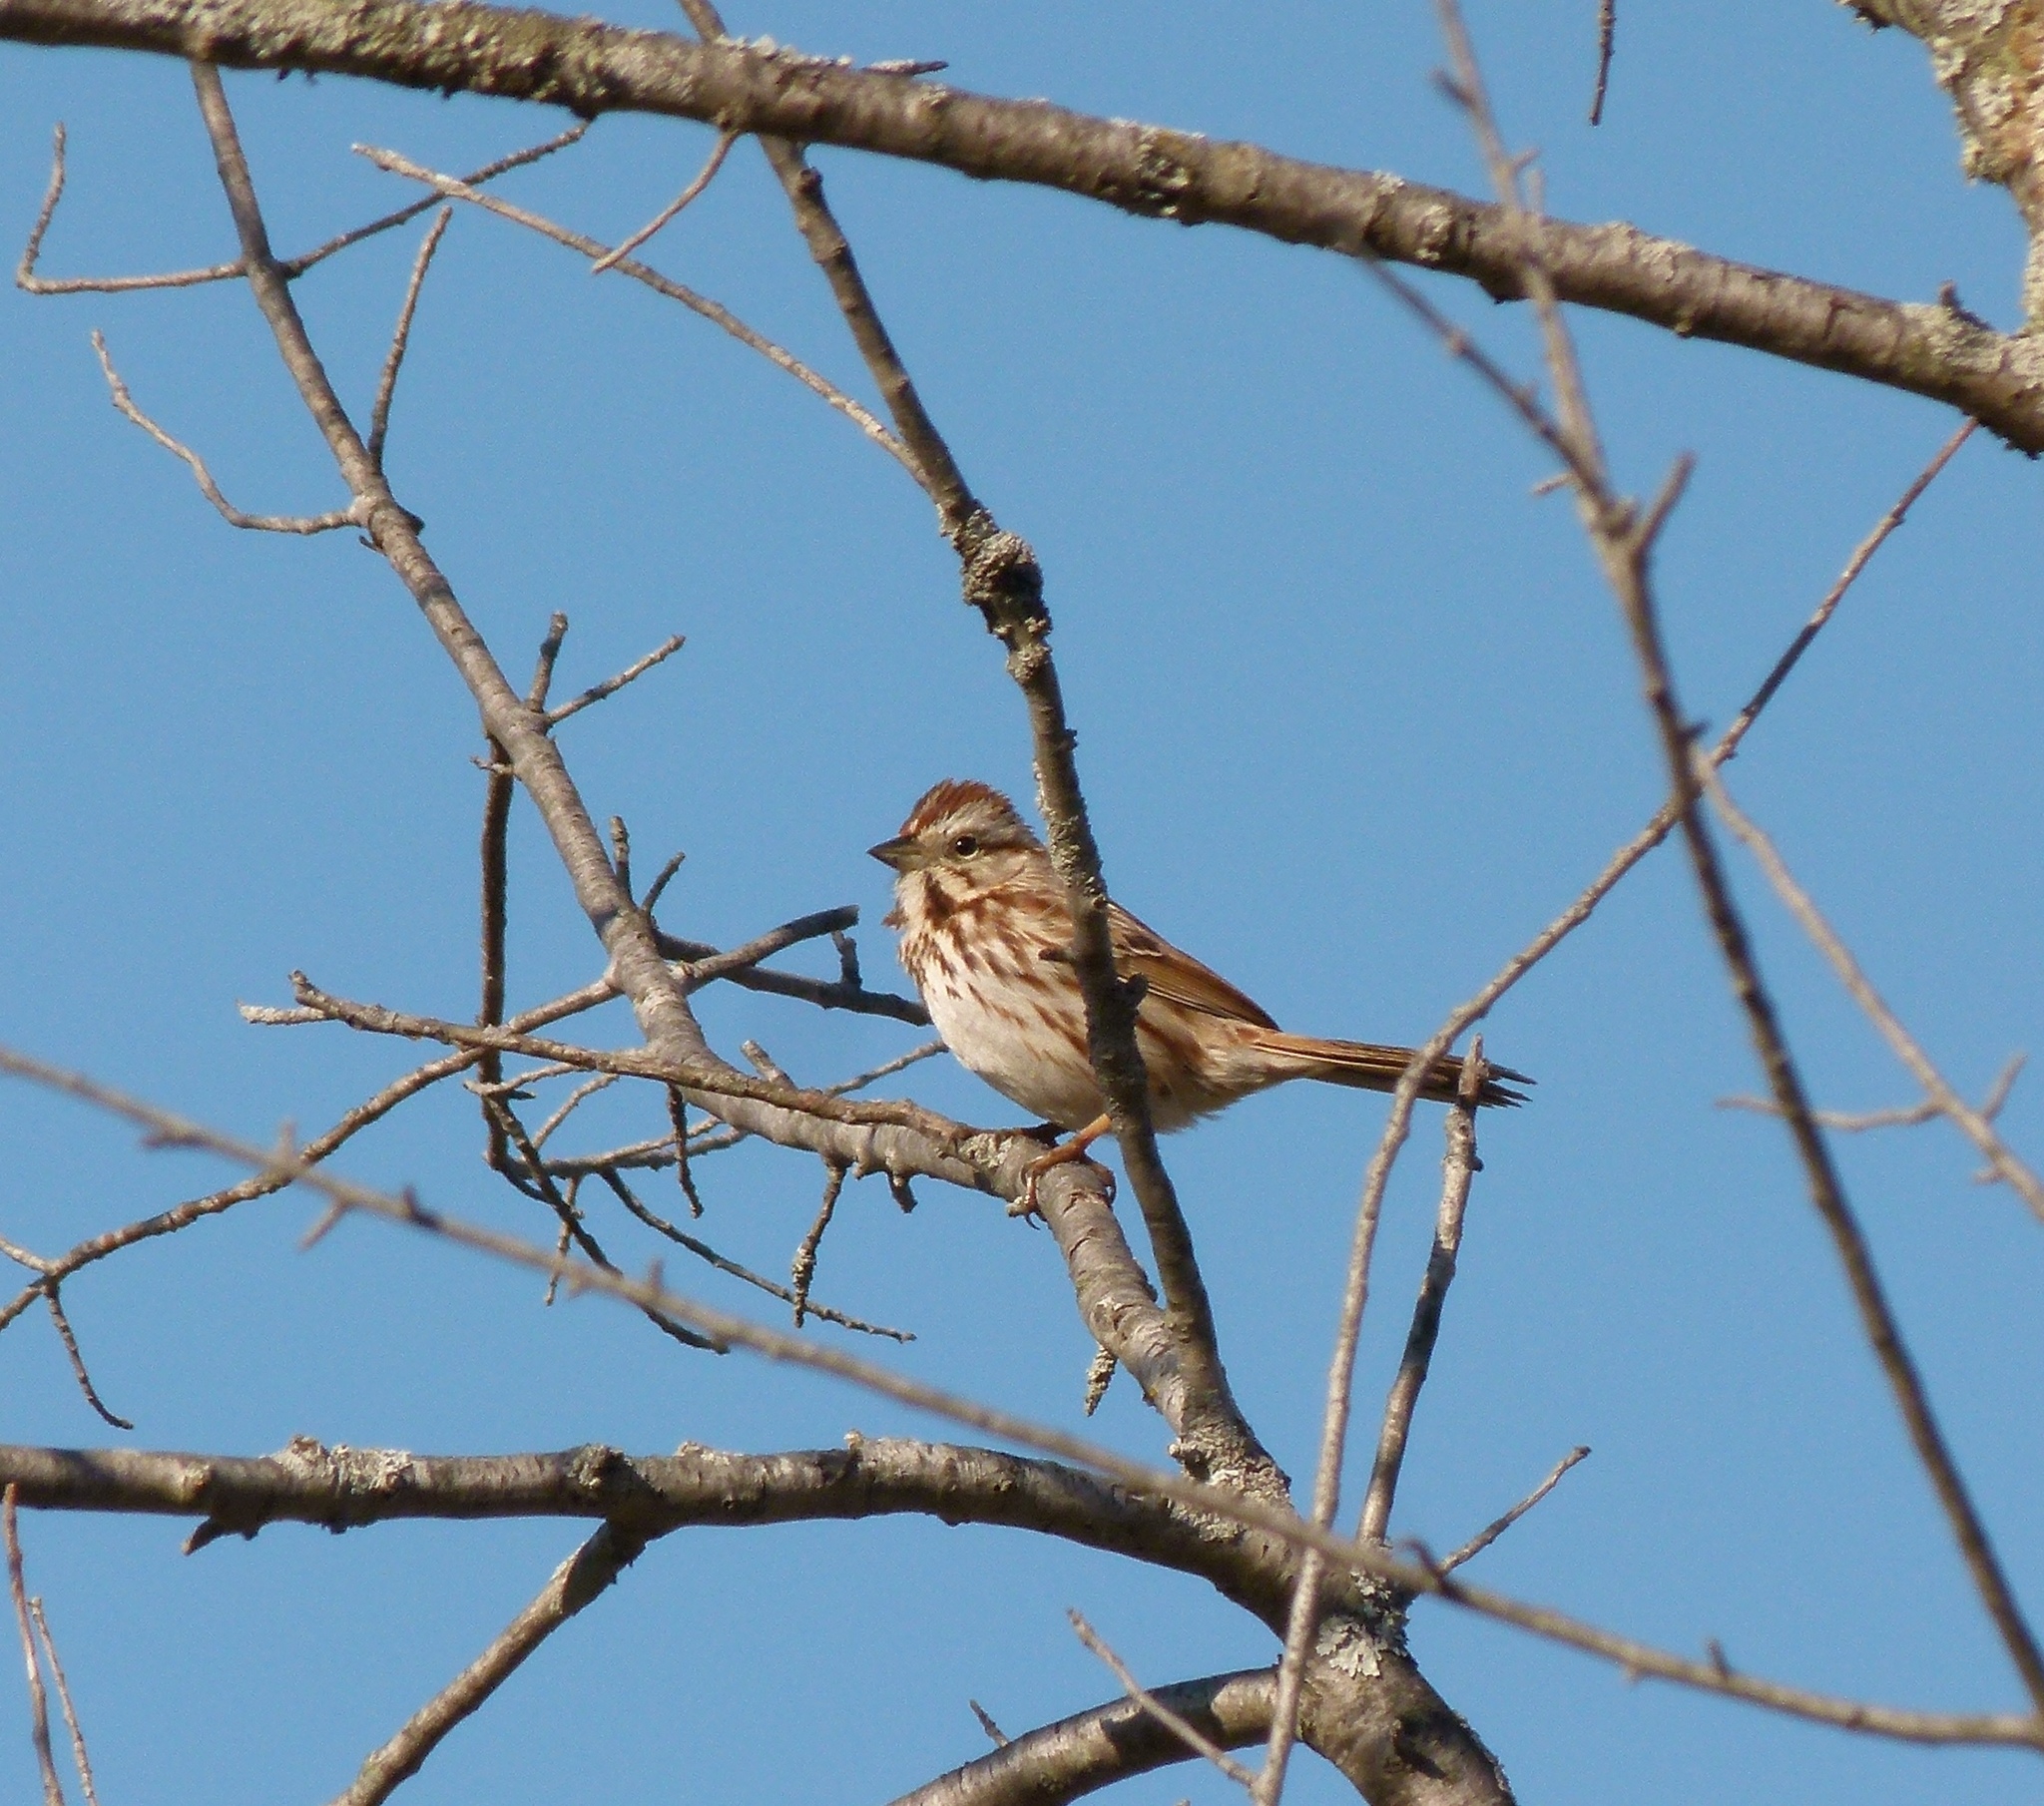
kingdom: Animalia
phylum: Chordata
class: Aves
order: Passeriformes
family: Passerellidae
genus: Melospiza
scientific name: Melospiza melodia
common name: Song sparrow
